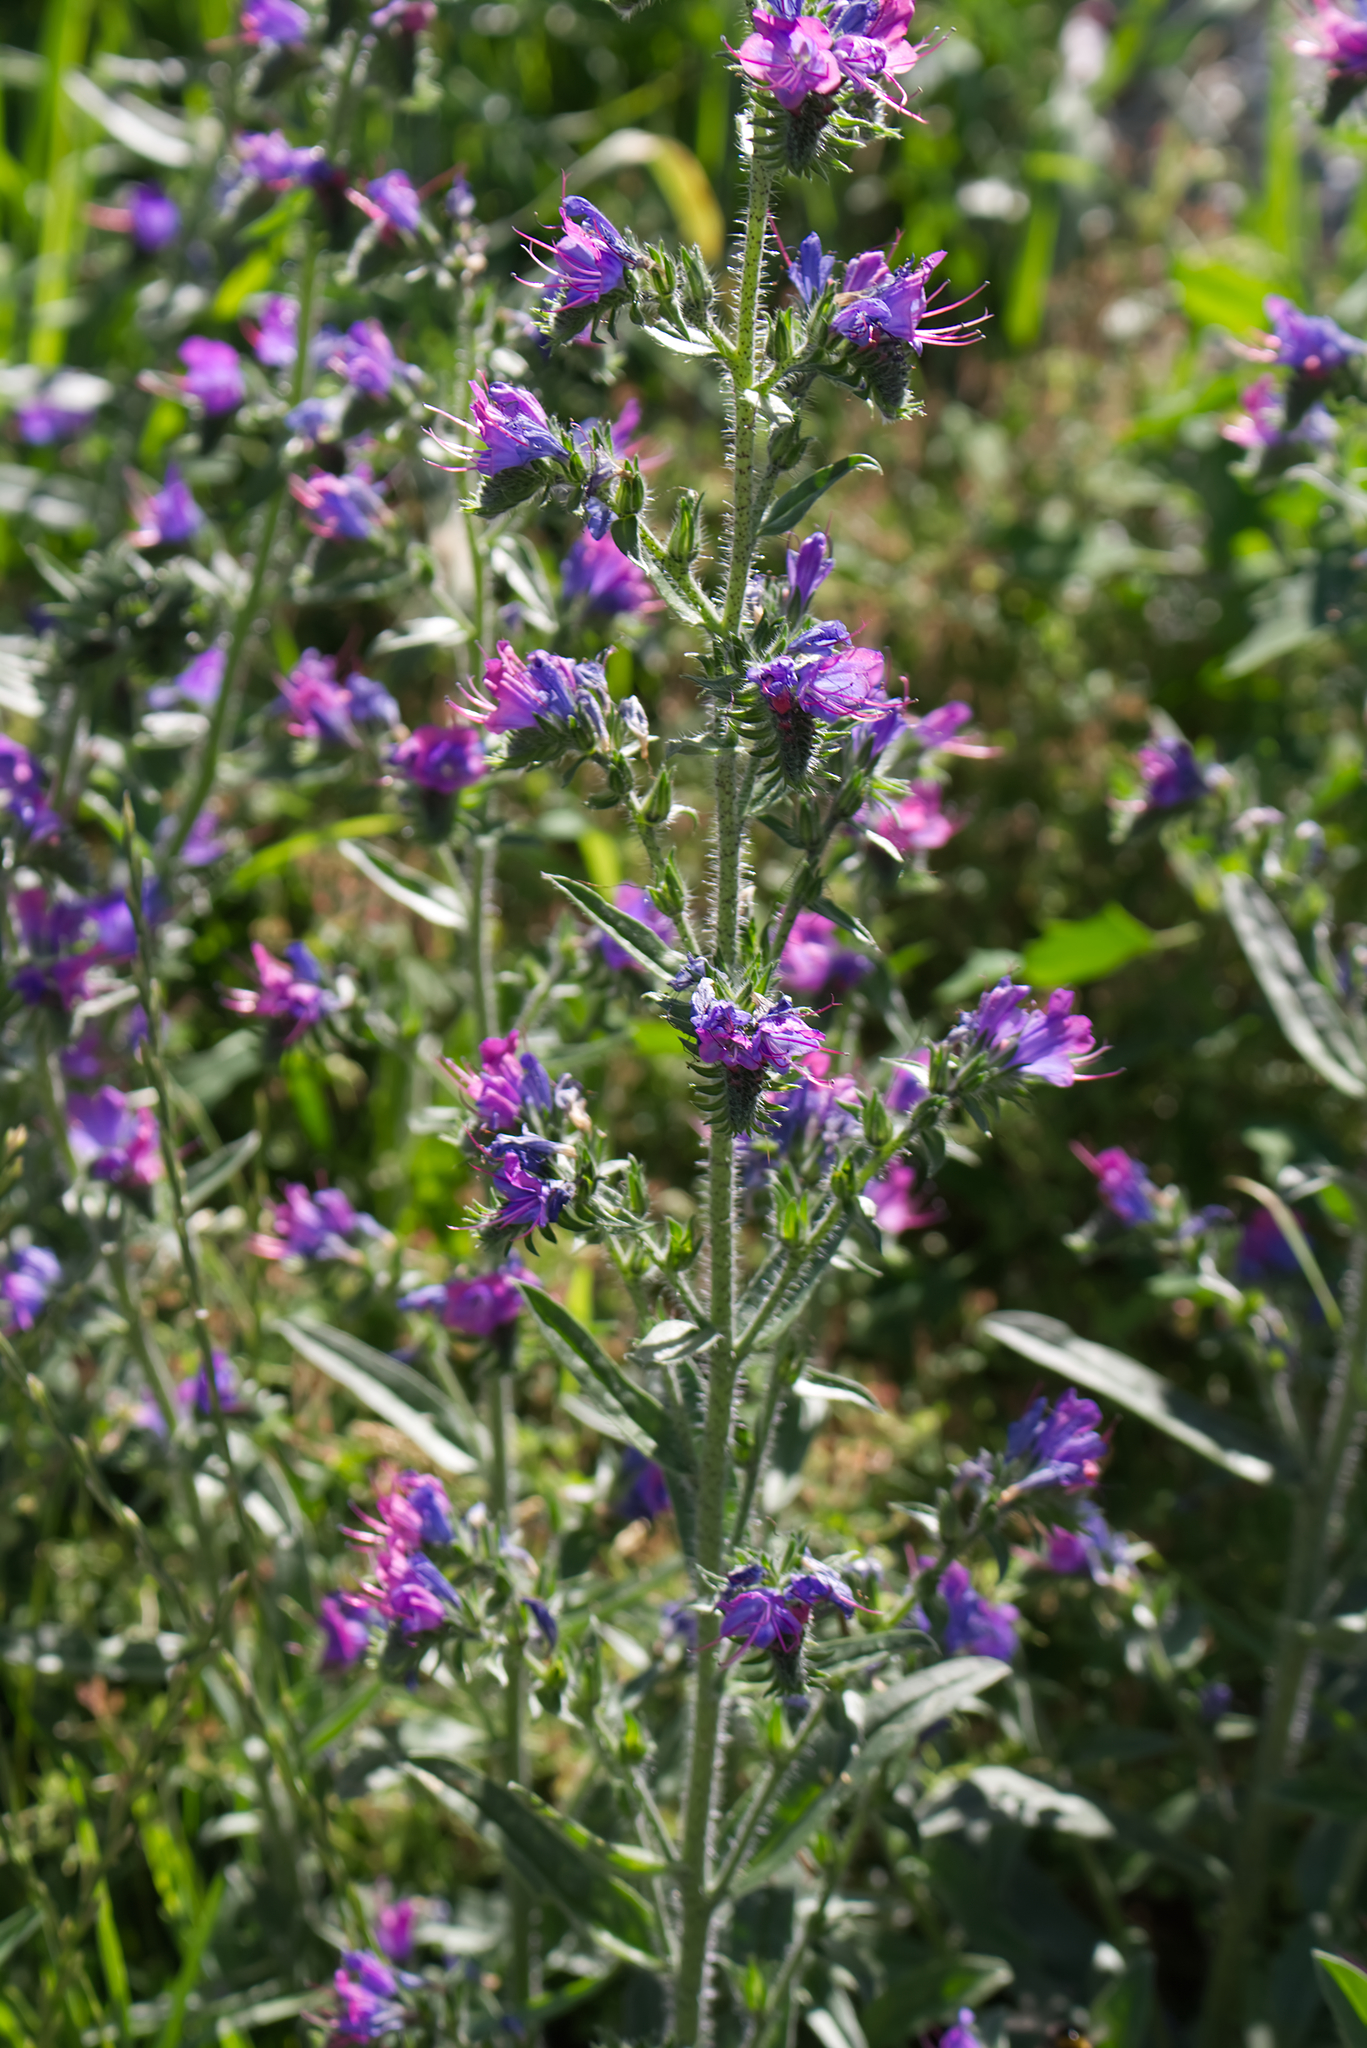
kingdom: Plantae
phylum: Tracheophyta
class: Magnoliopsida
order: Boraginales
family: Boraginaceae
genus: Echium
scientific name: Echium vulgare
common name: Common viper's bugloss
